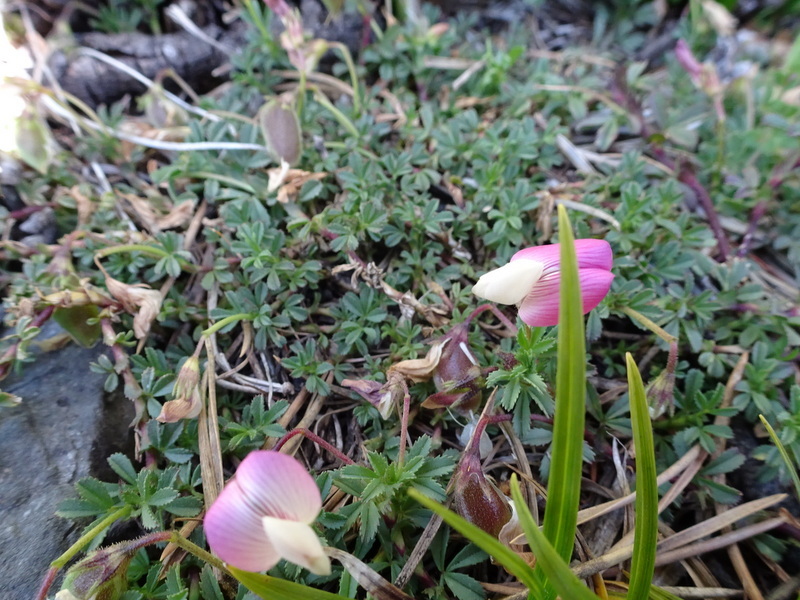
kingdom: Plantae
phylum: Tracheophyta
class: Magnoliopsida
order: Fabales
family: Fabaceae
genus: Ononis
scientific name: Ononis spinosa
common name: Spiny restharrow
